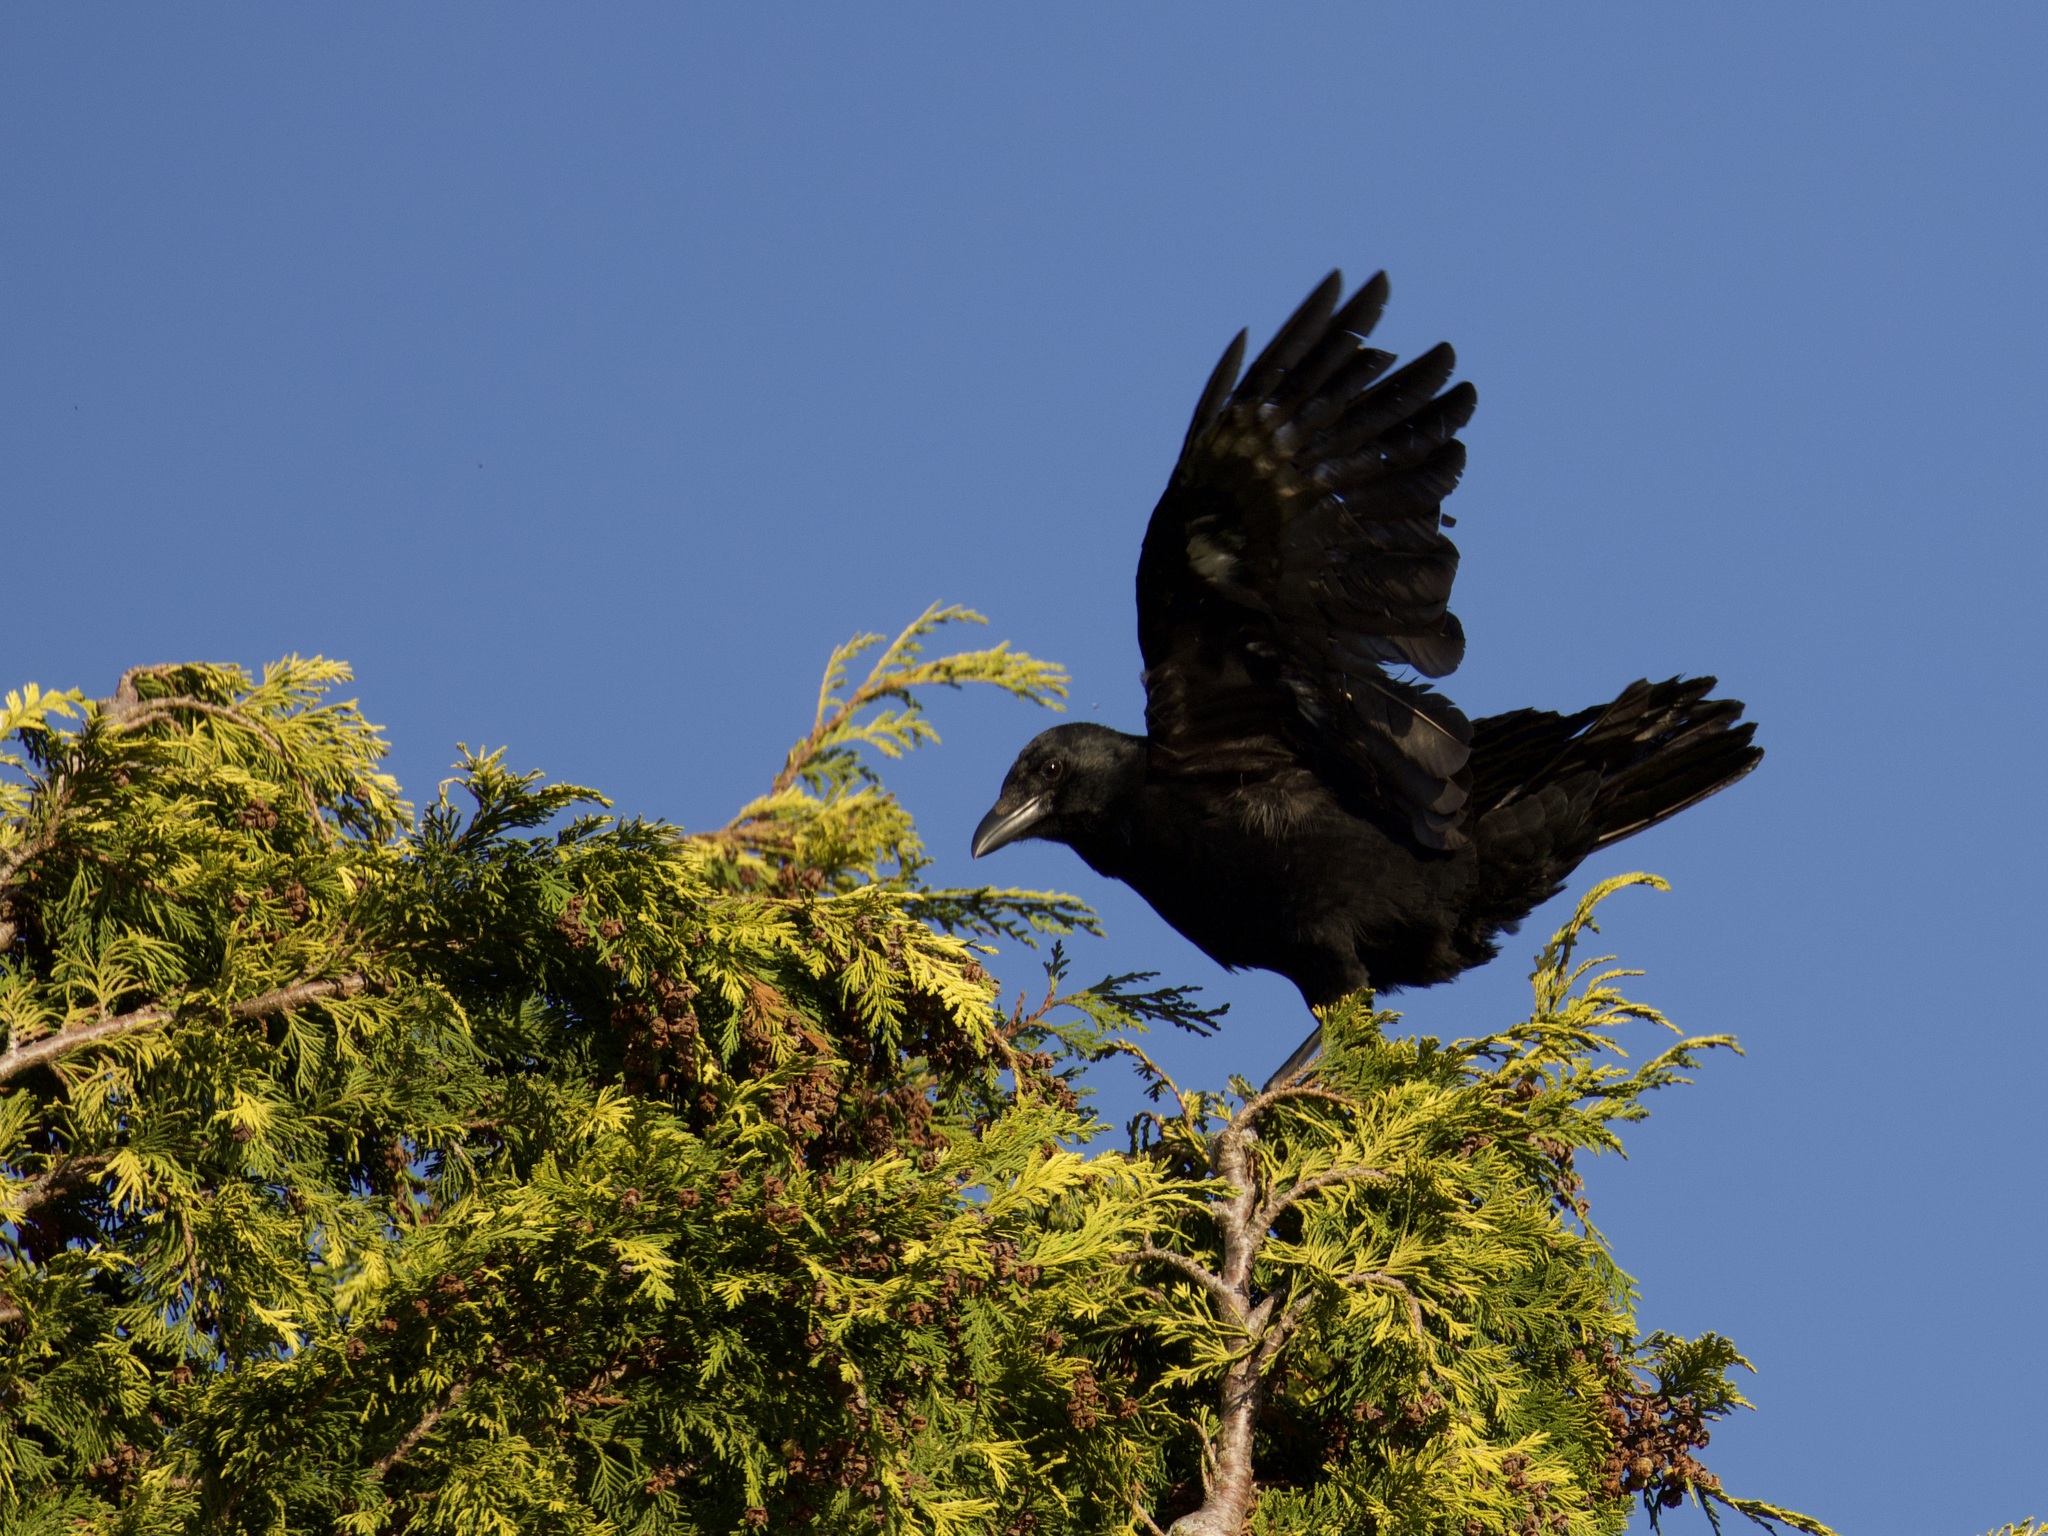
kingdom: Animalia
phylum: Chordata
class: Aves
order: Passeriformes
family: Corvidae
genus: Corvus
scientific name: Corvus corone
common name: Carrion crow
